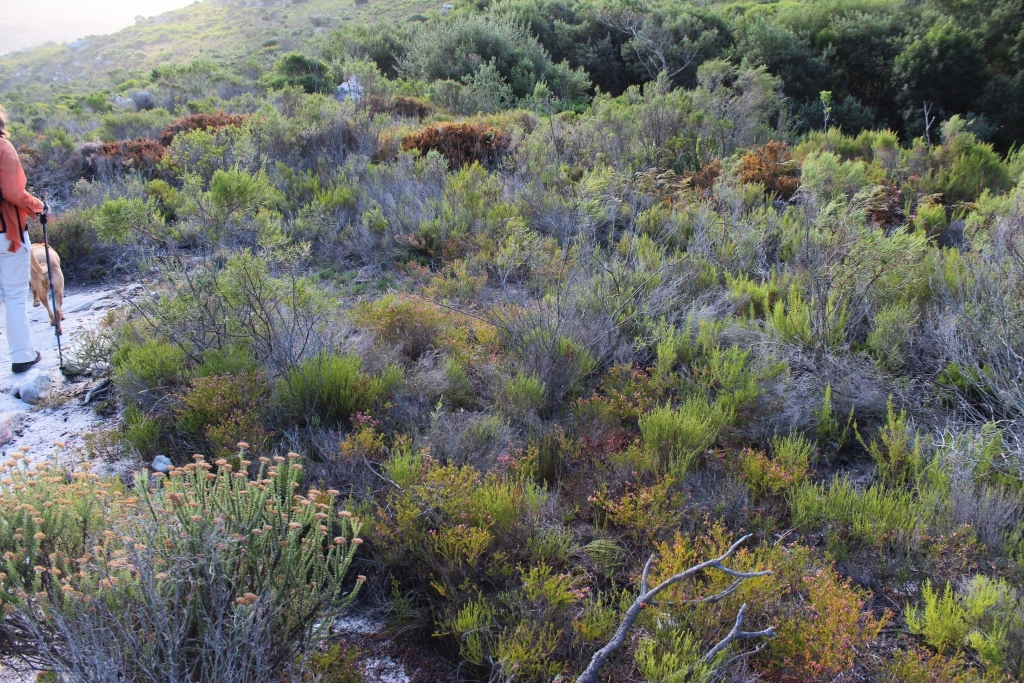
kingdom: Plantae
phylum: Tracheophyta
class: Magnoliopsida
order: Ericales
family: Ericaceae
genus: Erica
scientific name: Erica multumbellifera
